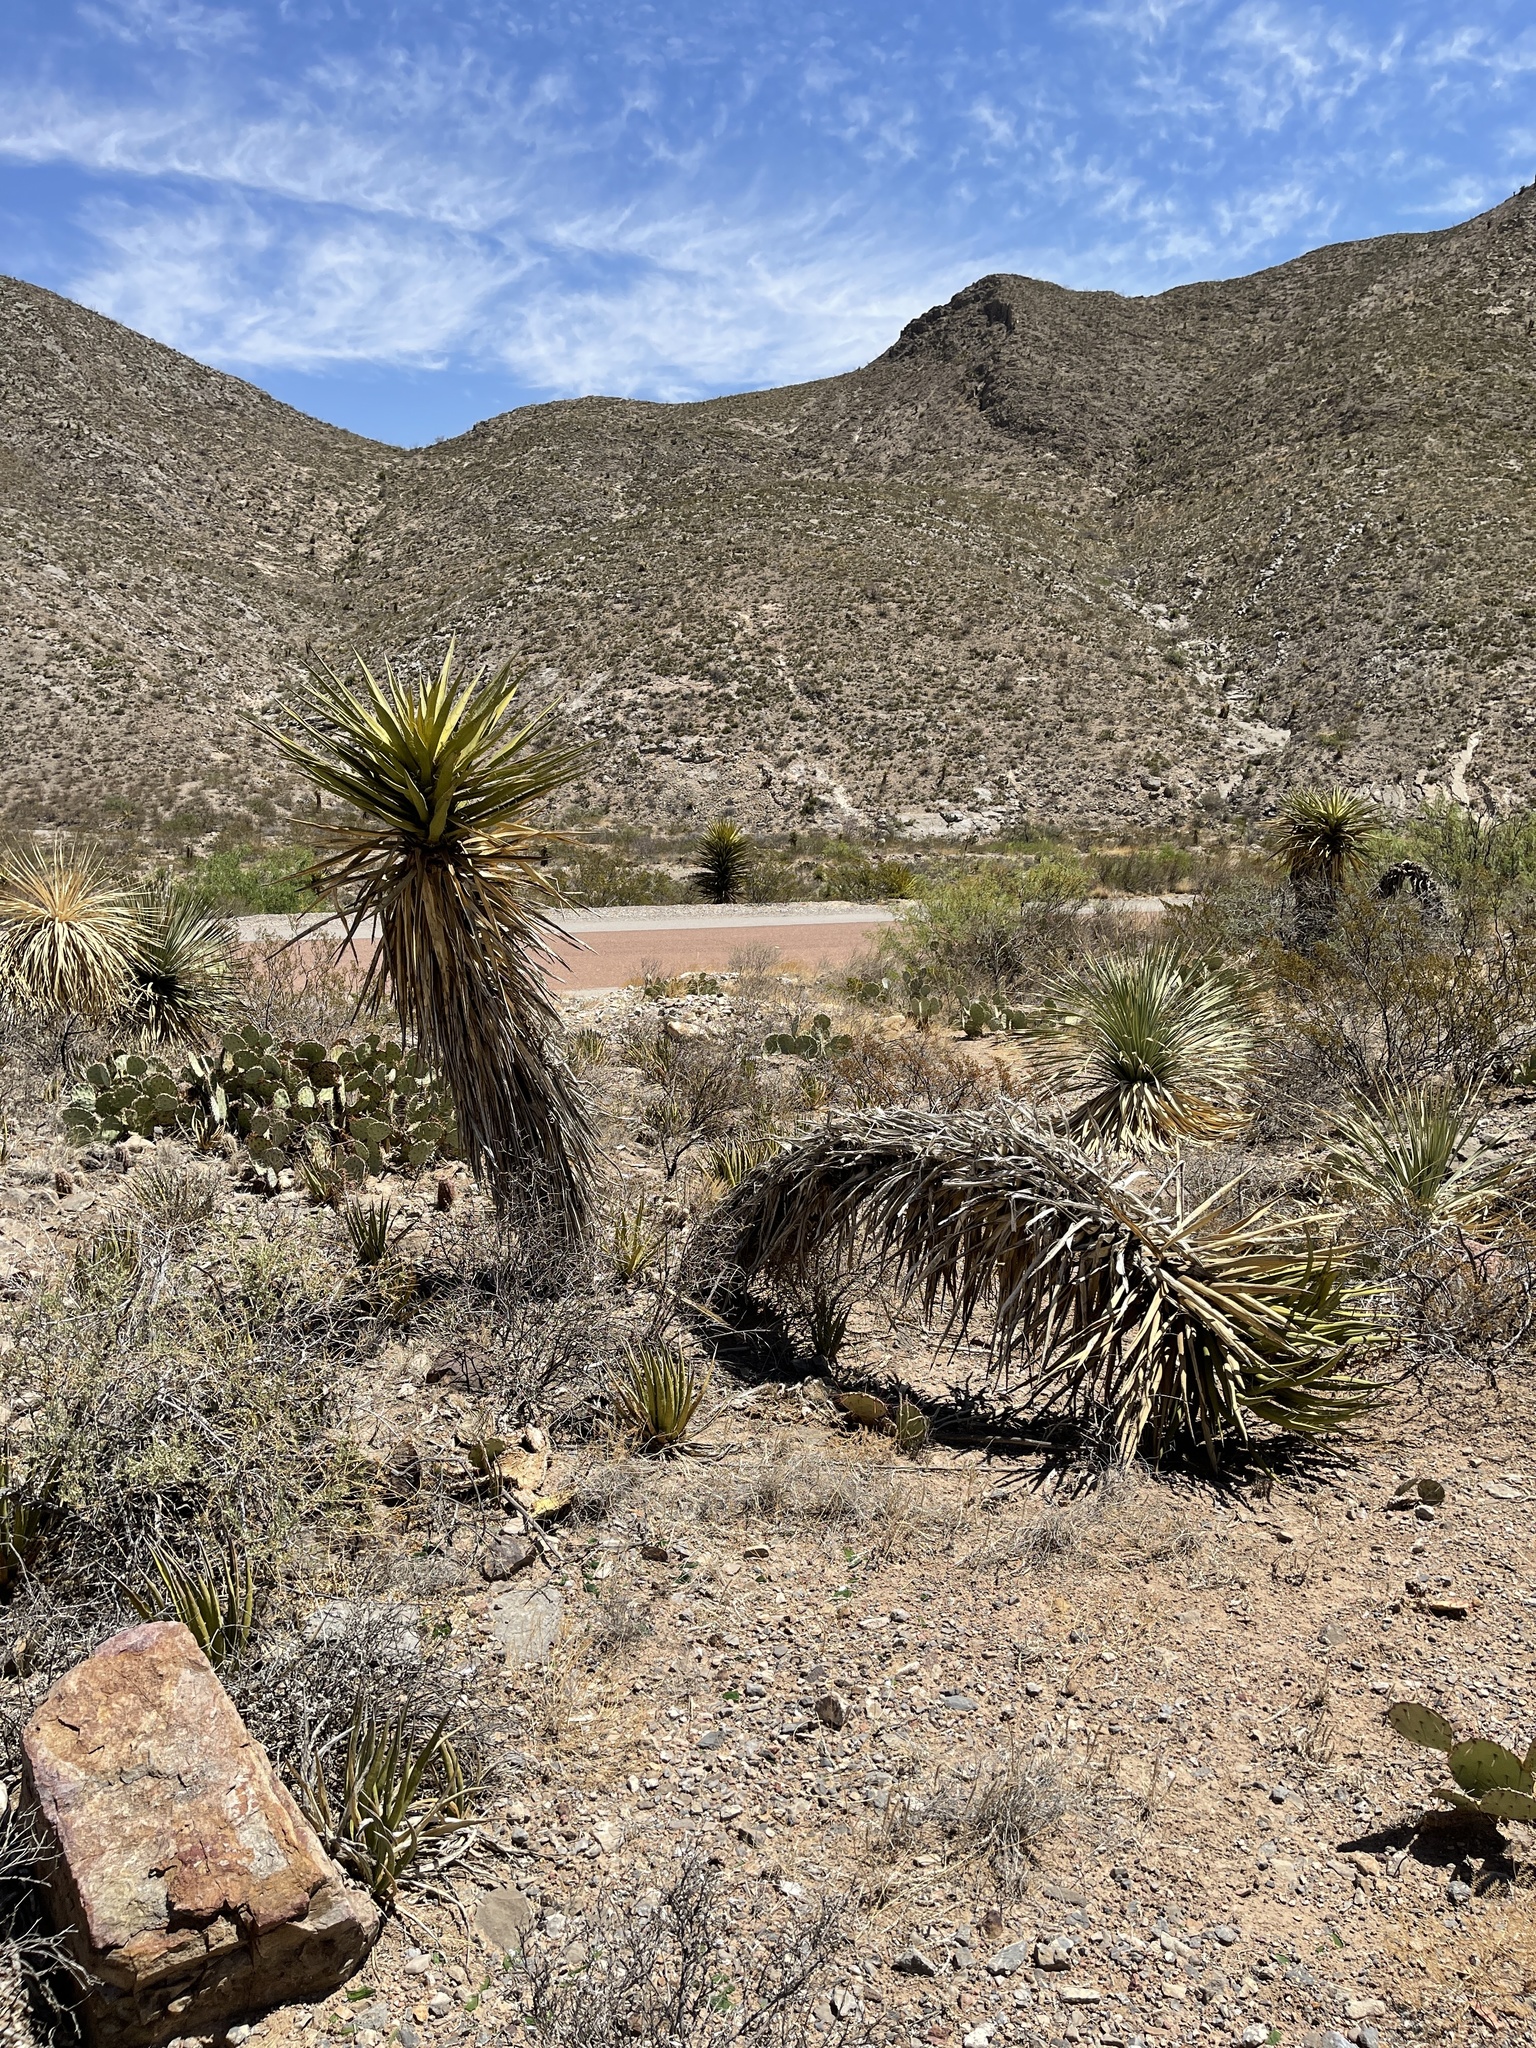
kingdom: Plantae
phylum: Tracheophyta
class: Liliopsida
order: Asparagales
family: Asparagaceae
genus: Yucca
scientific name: Yucca treculiana
